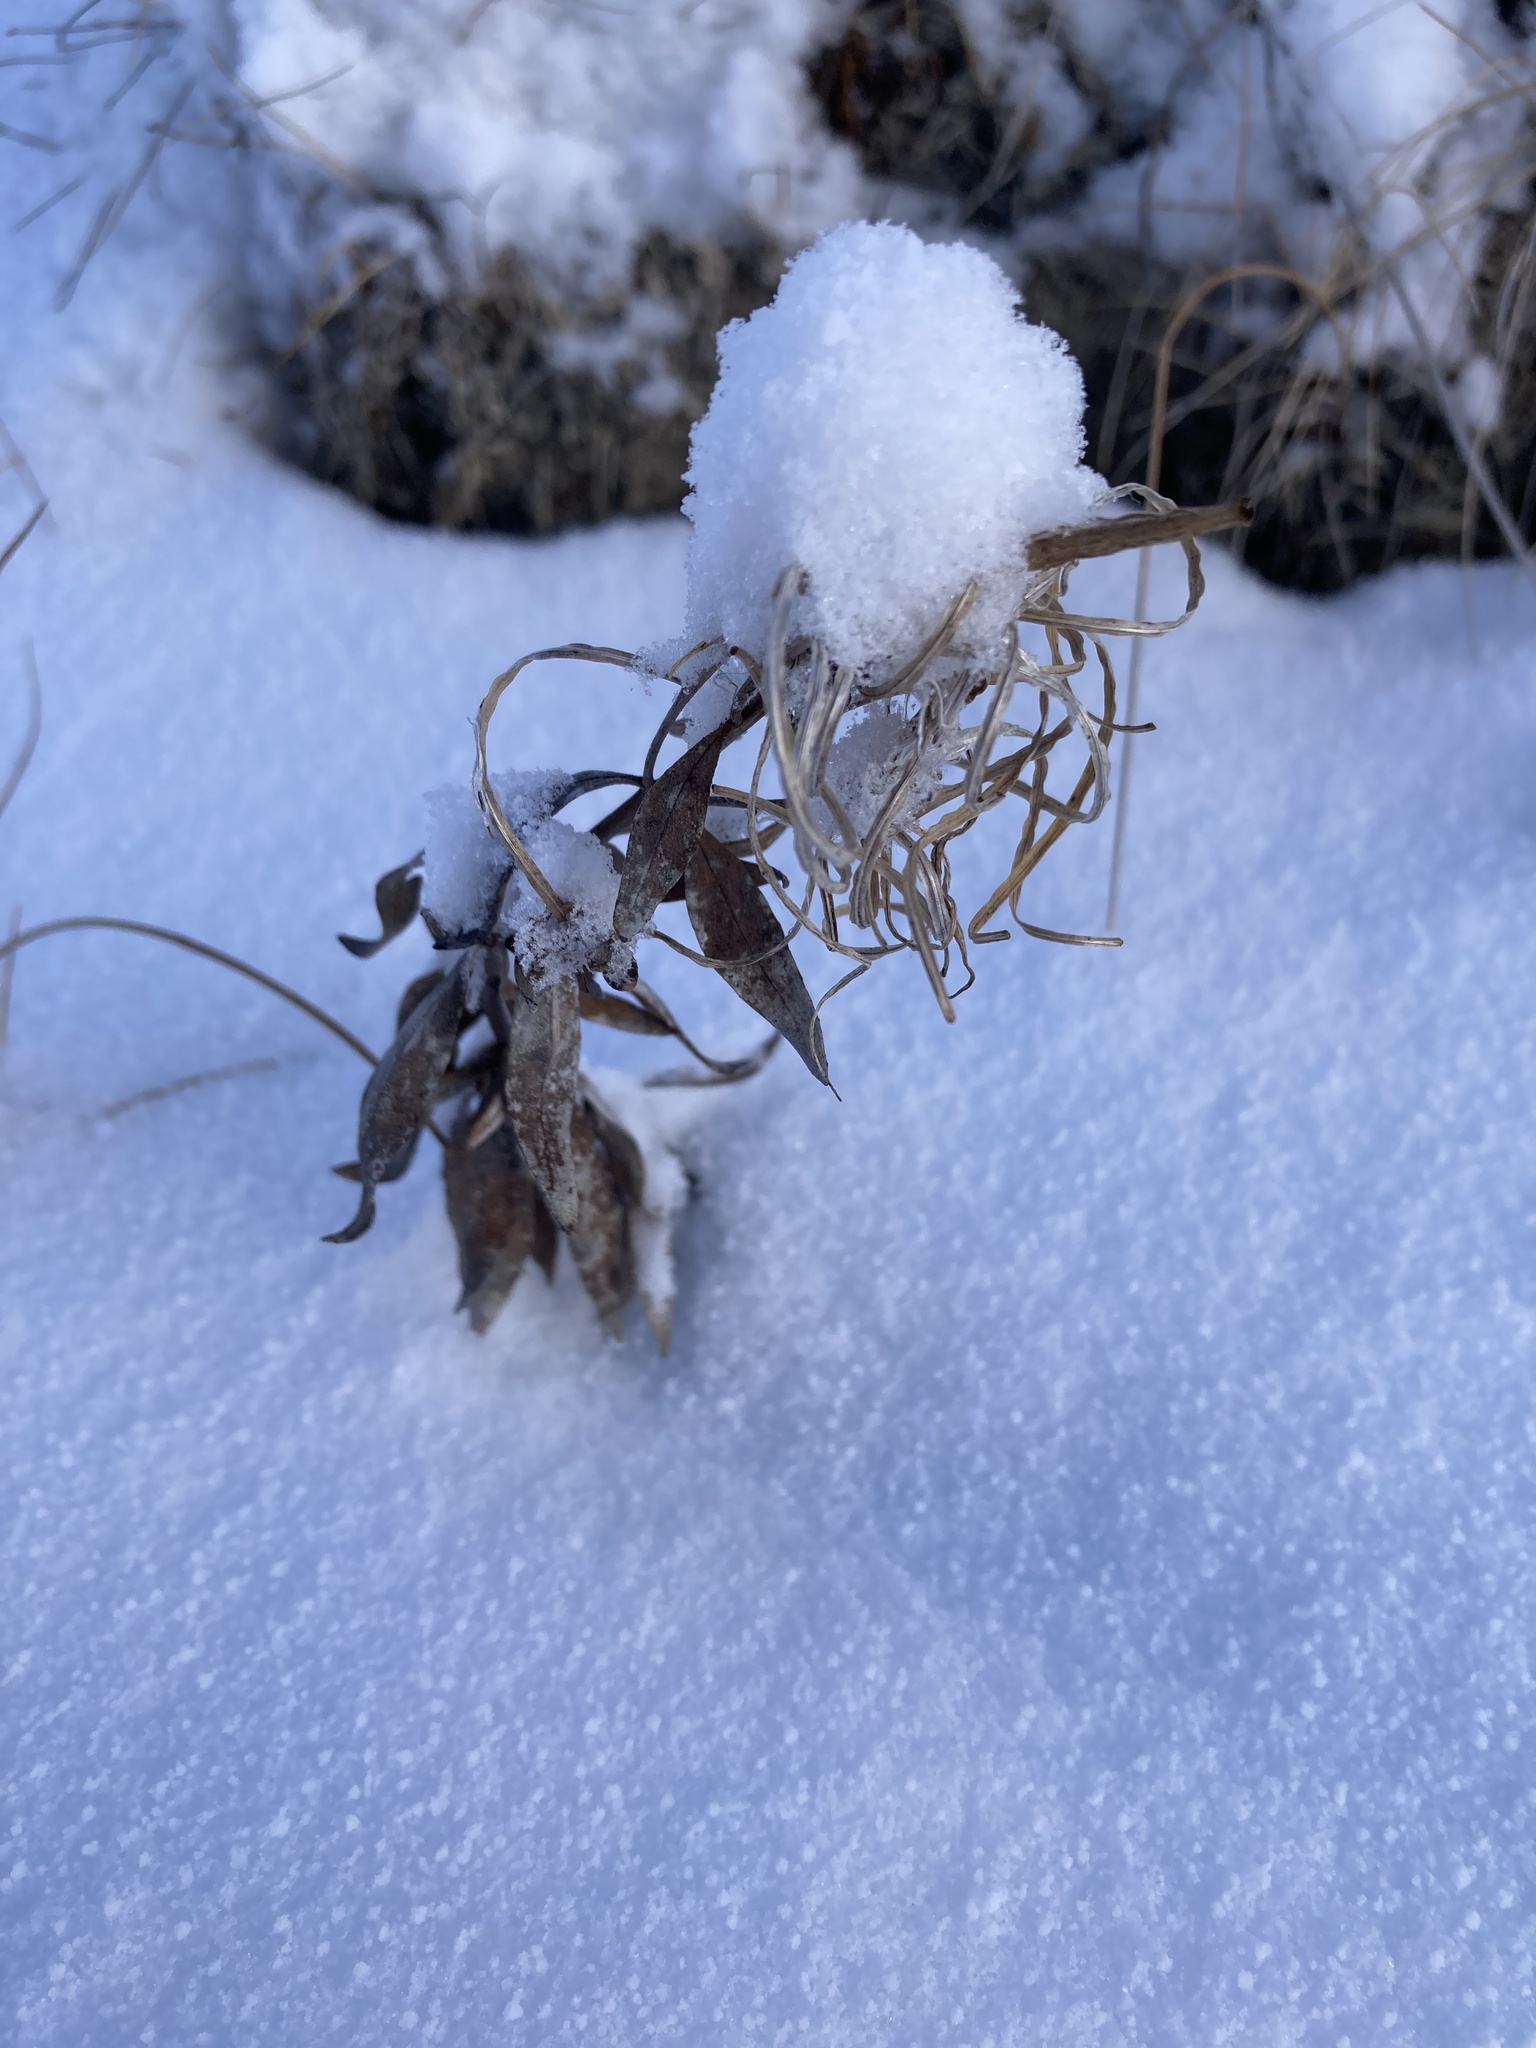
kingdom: Plantae
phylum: Tracheophyta
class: Magnoliopsida
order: Myrtales
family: Onagraceae
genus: Chamaenerion
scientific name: Chamaenerion latifolium
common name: Dwarf fireweed
